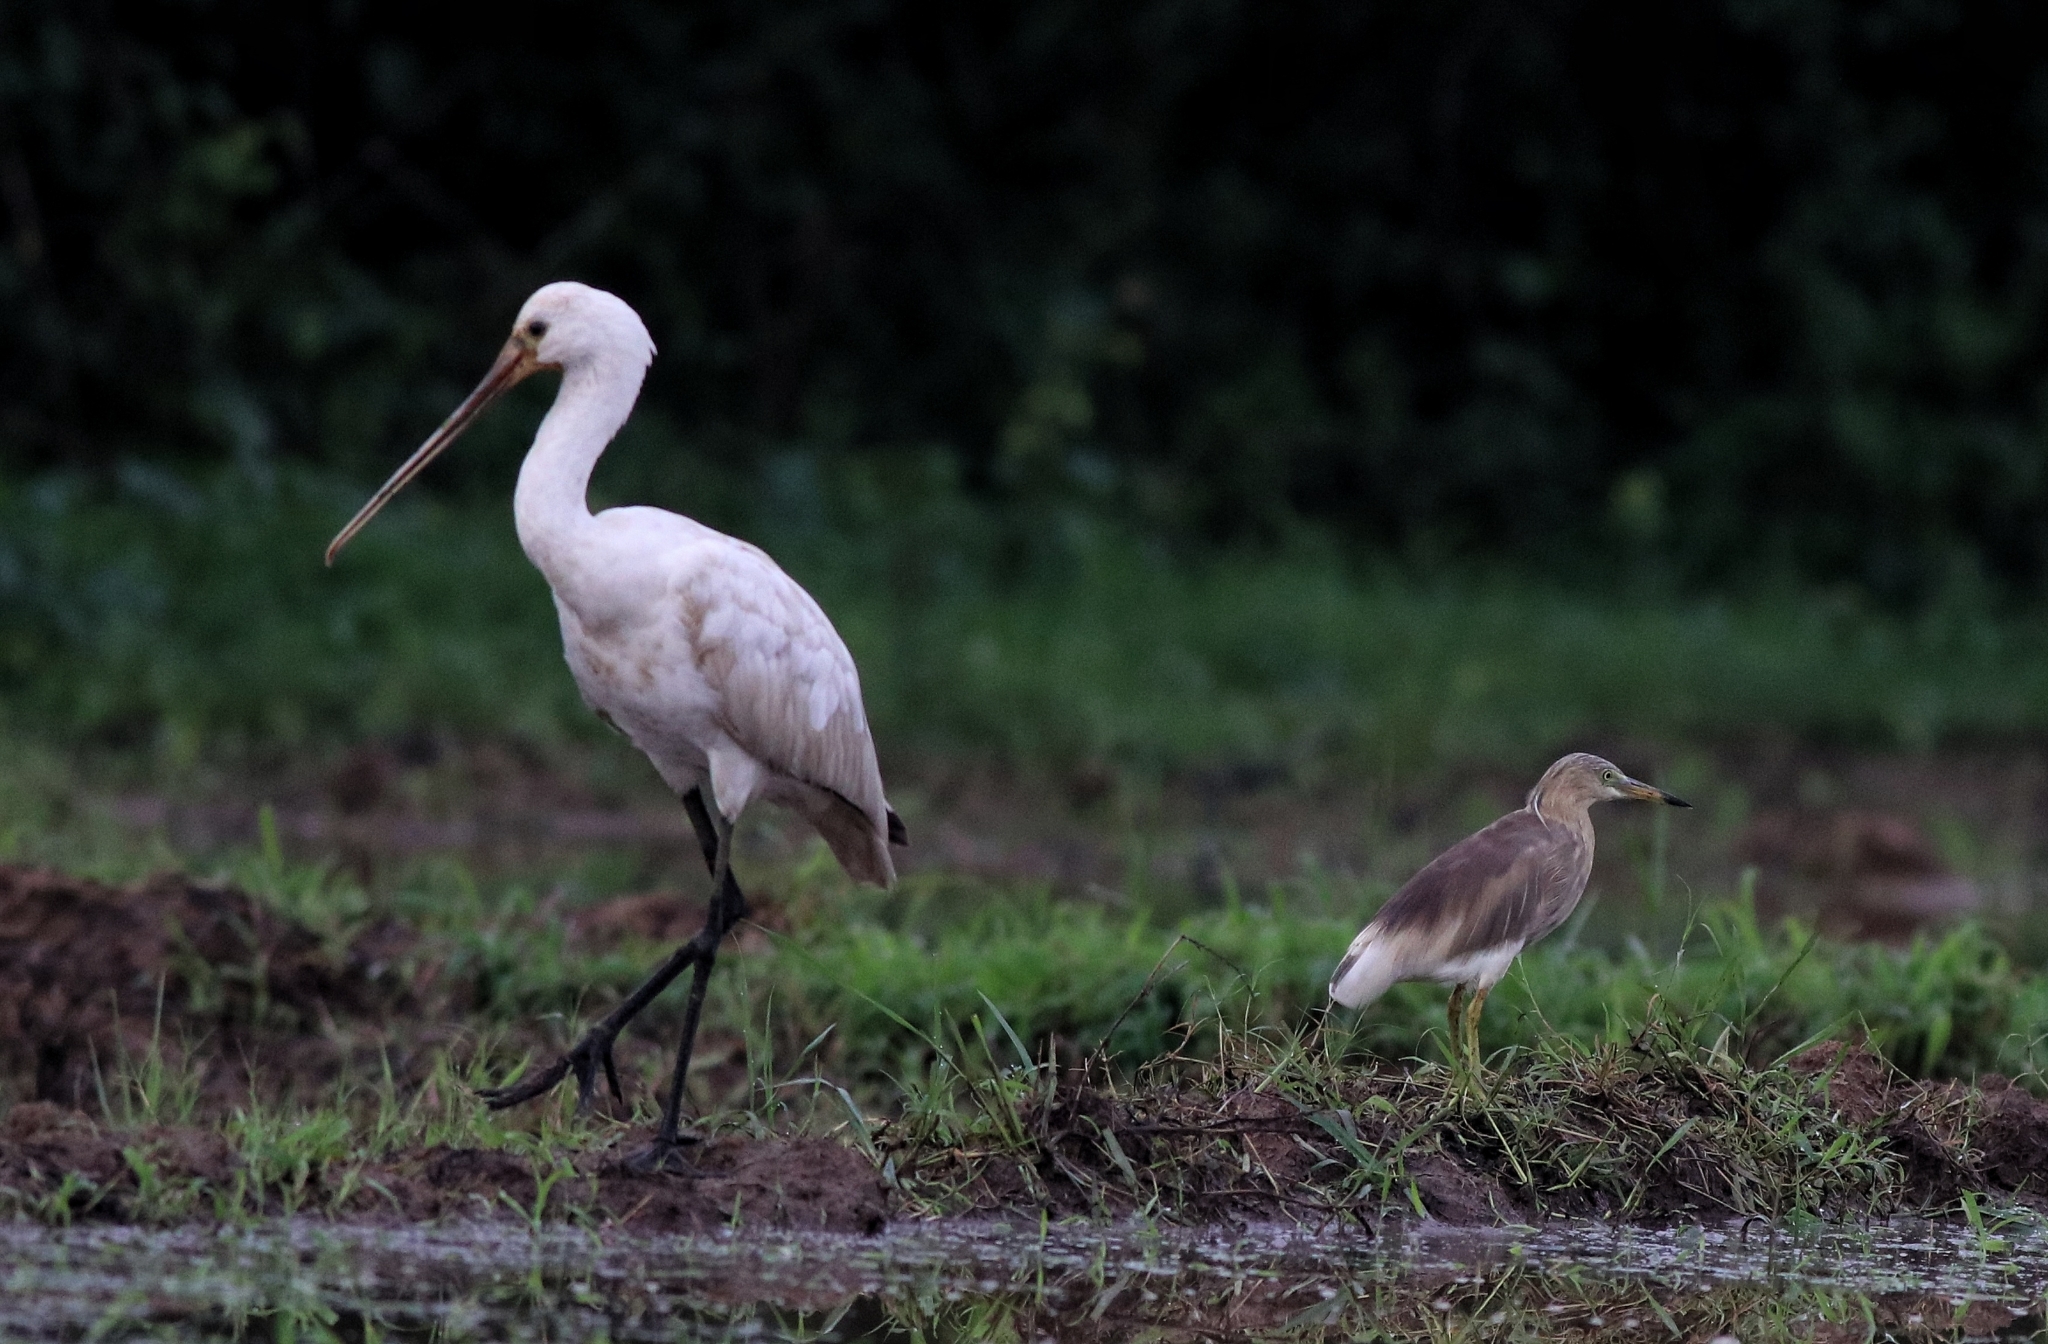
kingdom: Animalia
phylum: Chordata
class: Aves
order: Pelecaniformes
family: Threskiornithidae
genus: Platalea
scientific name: Platalea leucorodia
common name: Eurasian spoonbill
